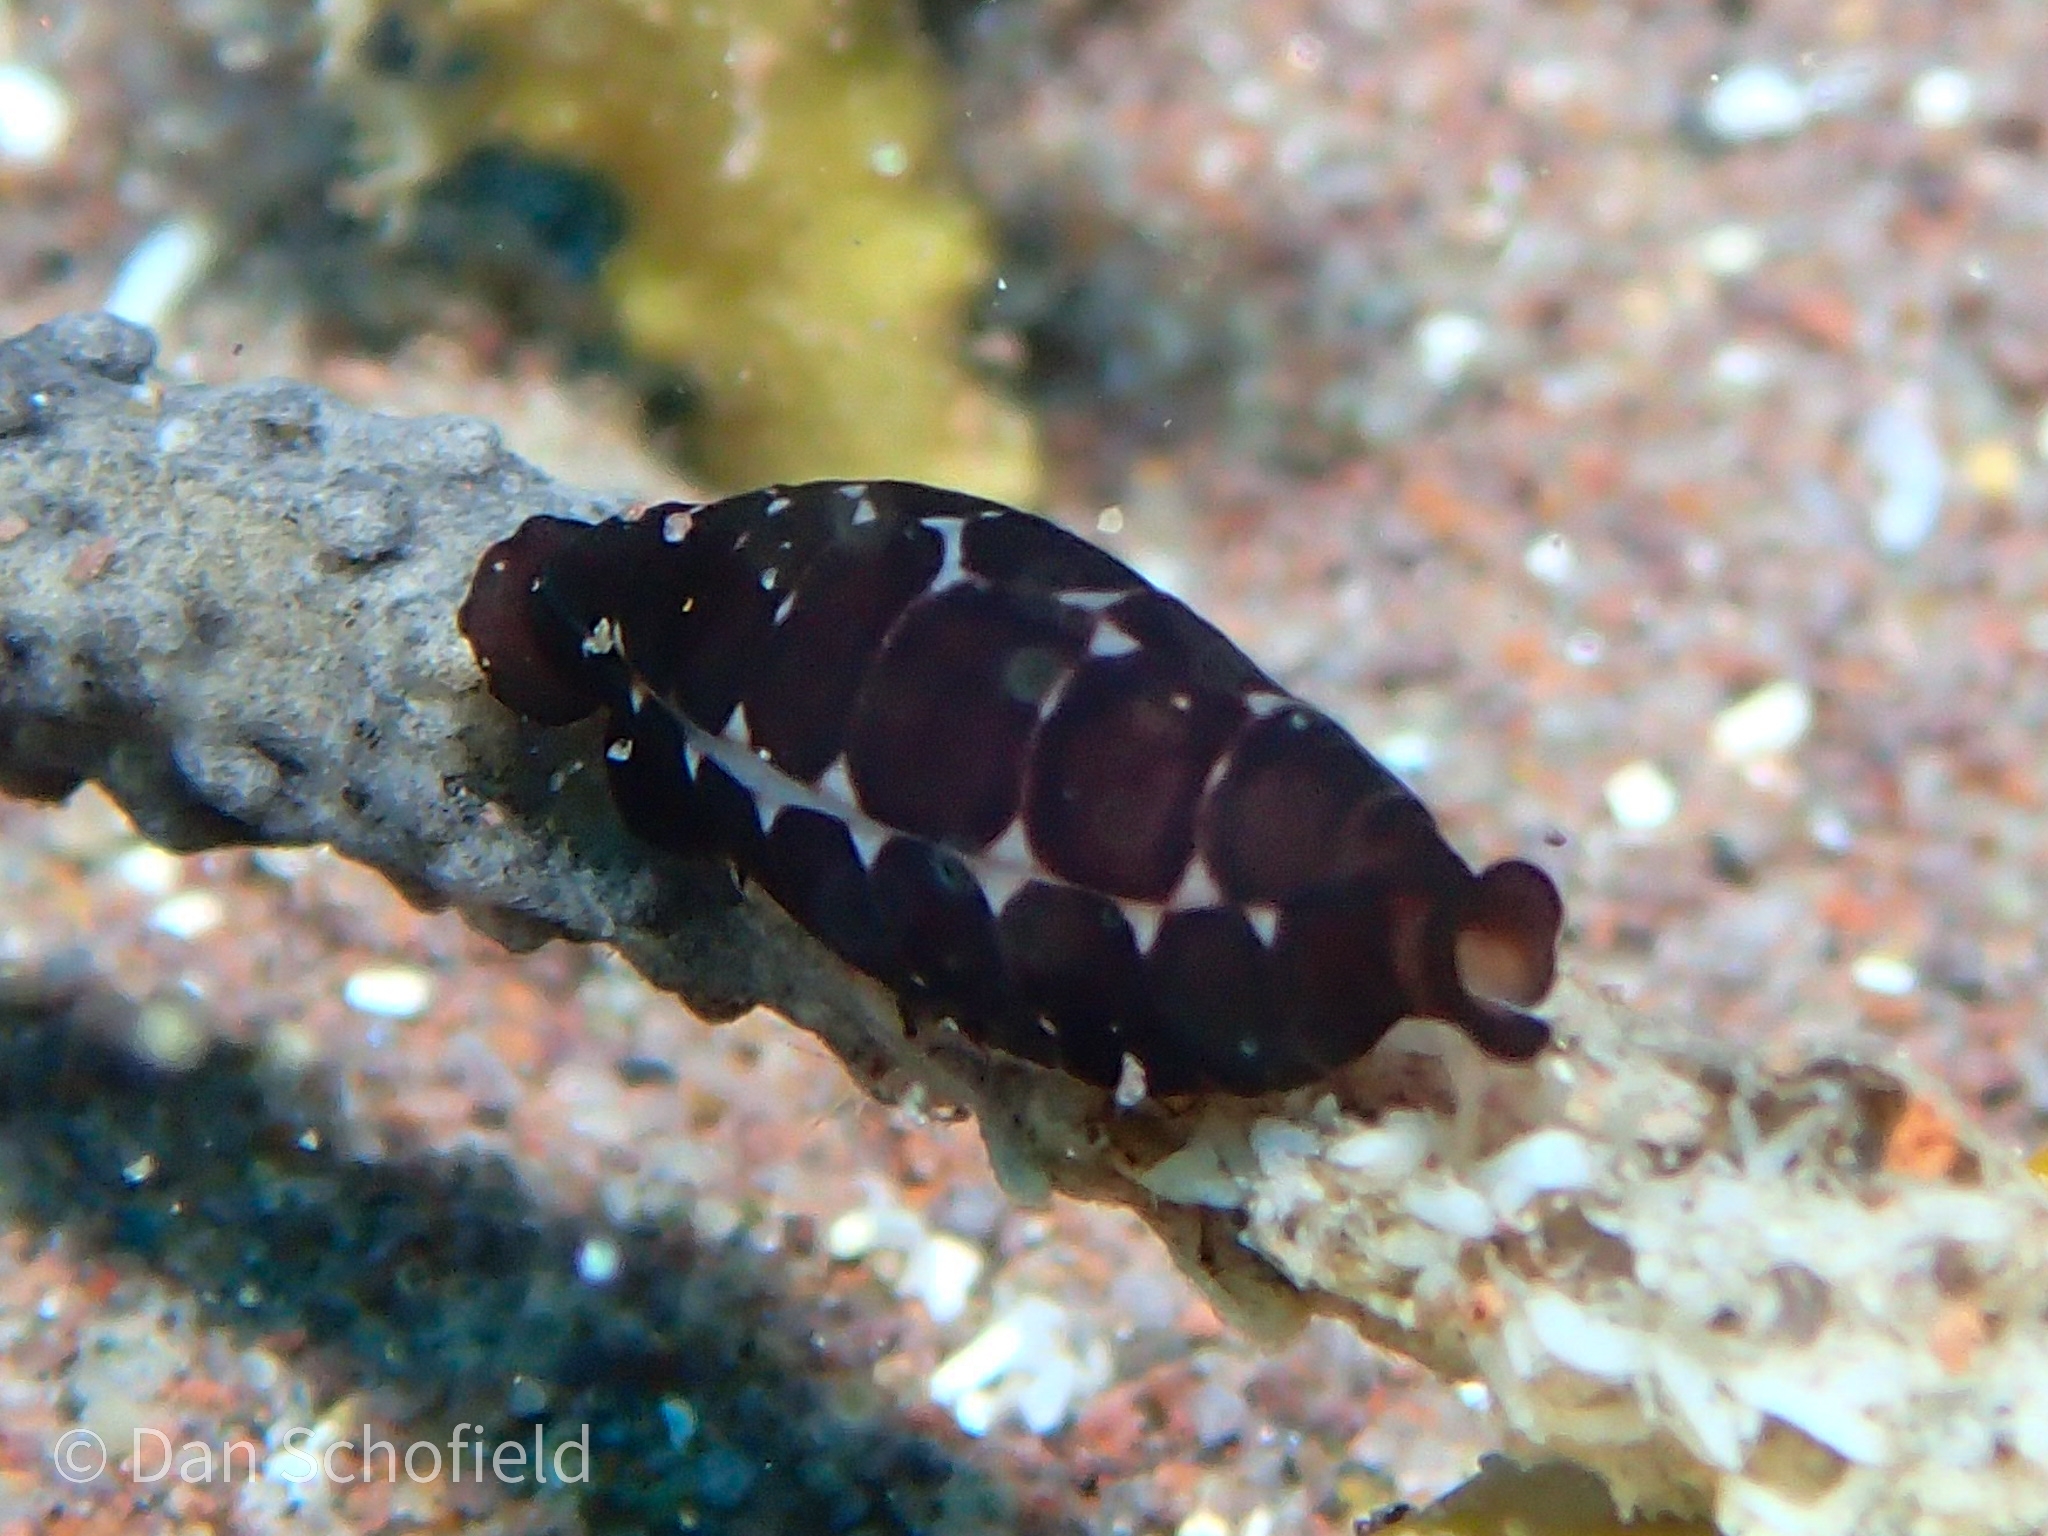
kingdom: Animalia
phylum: Mollusca
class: Gastropoda
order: Littorinimorpha
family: Ovulidae
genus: Cyphoma
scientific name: Cyphoma cassidyae
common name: Black morph cyphoma
